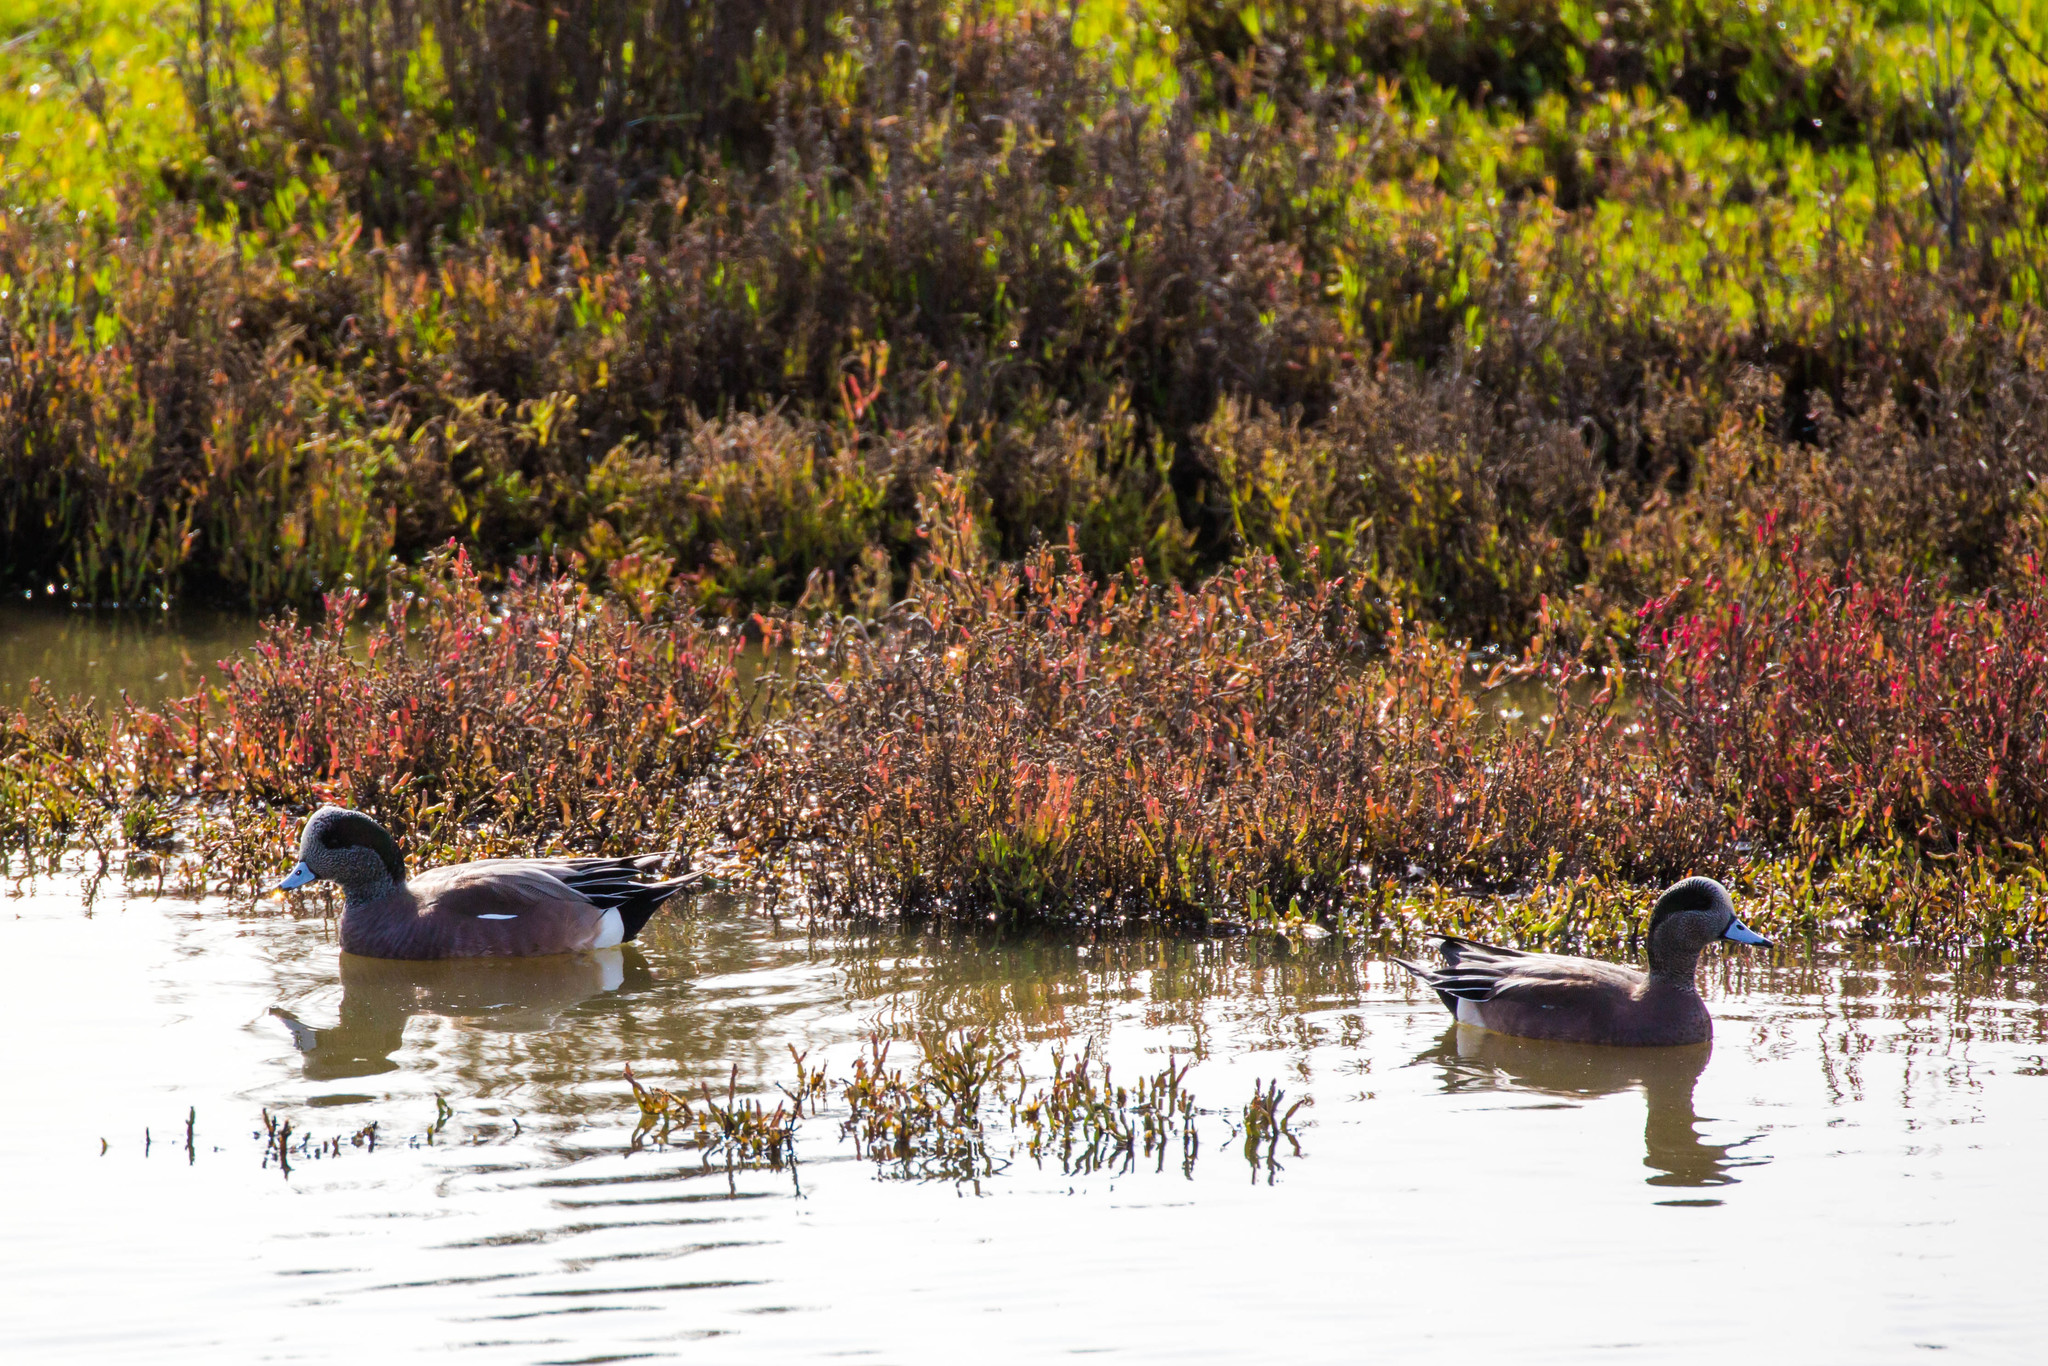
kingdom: Animalia
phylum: Chordata
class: Aves
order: Anseriformes
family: Anatidae
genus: Mareca
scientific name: Mareca americana
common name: American wigeon
